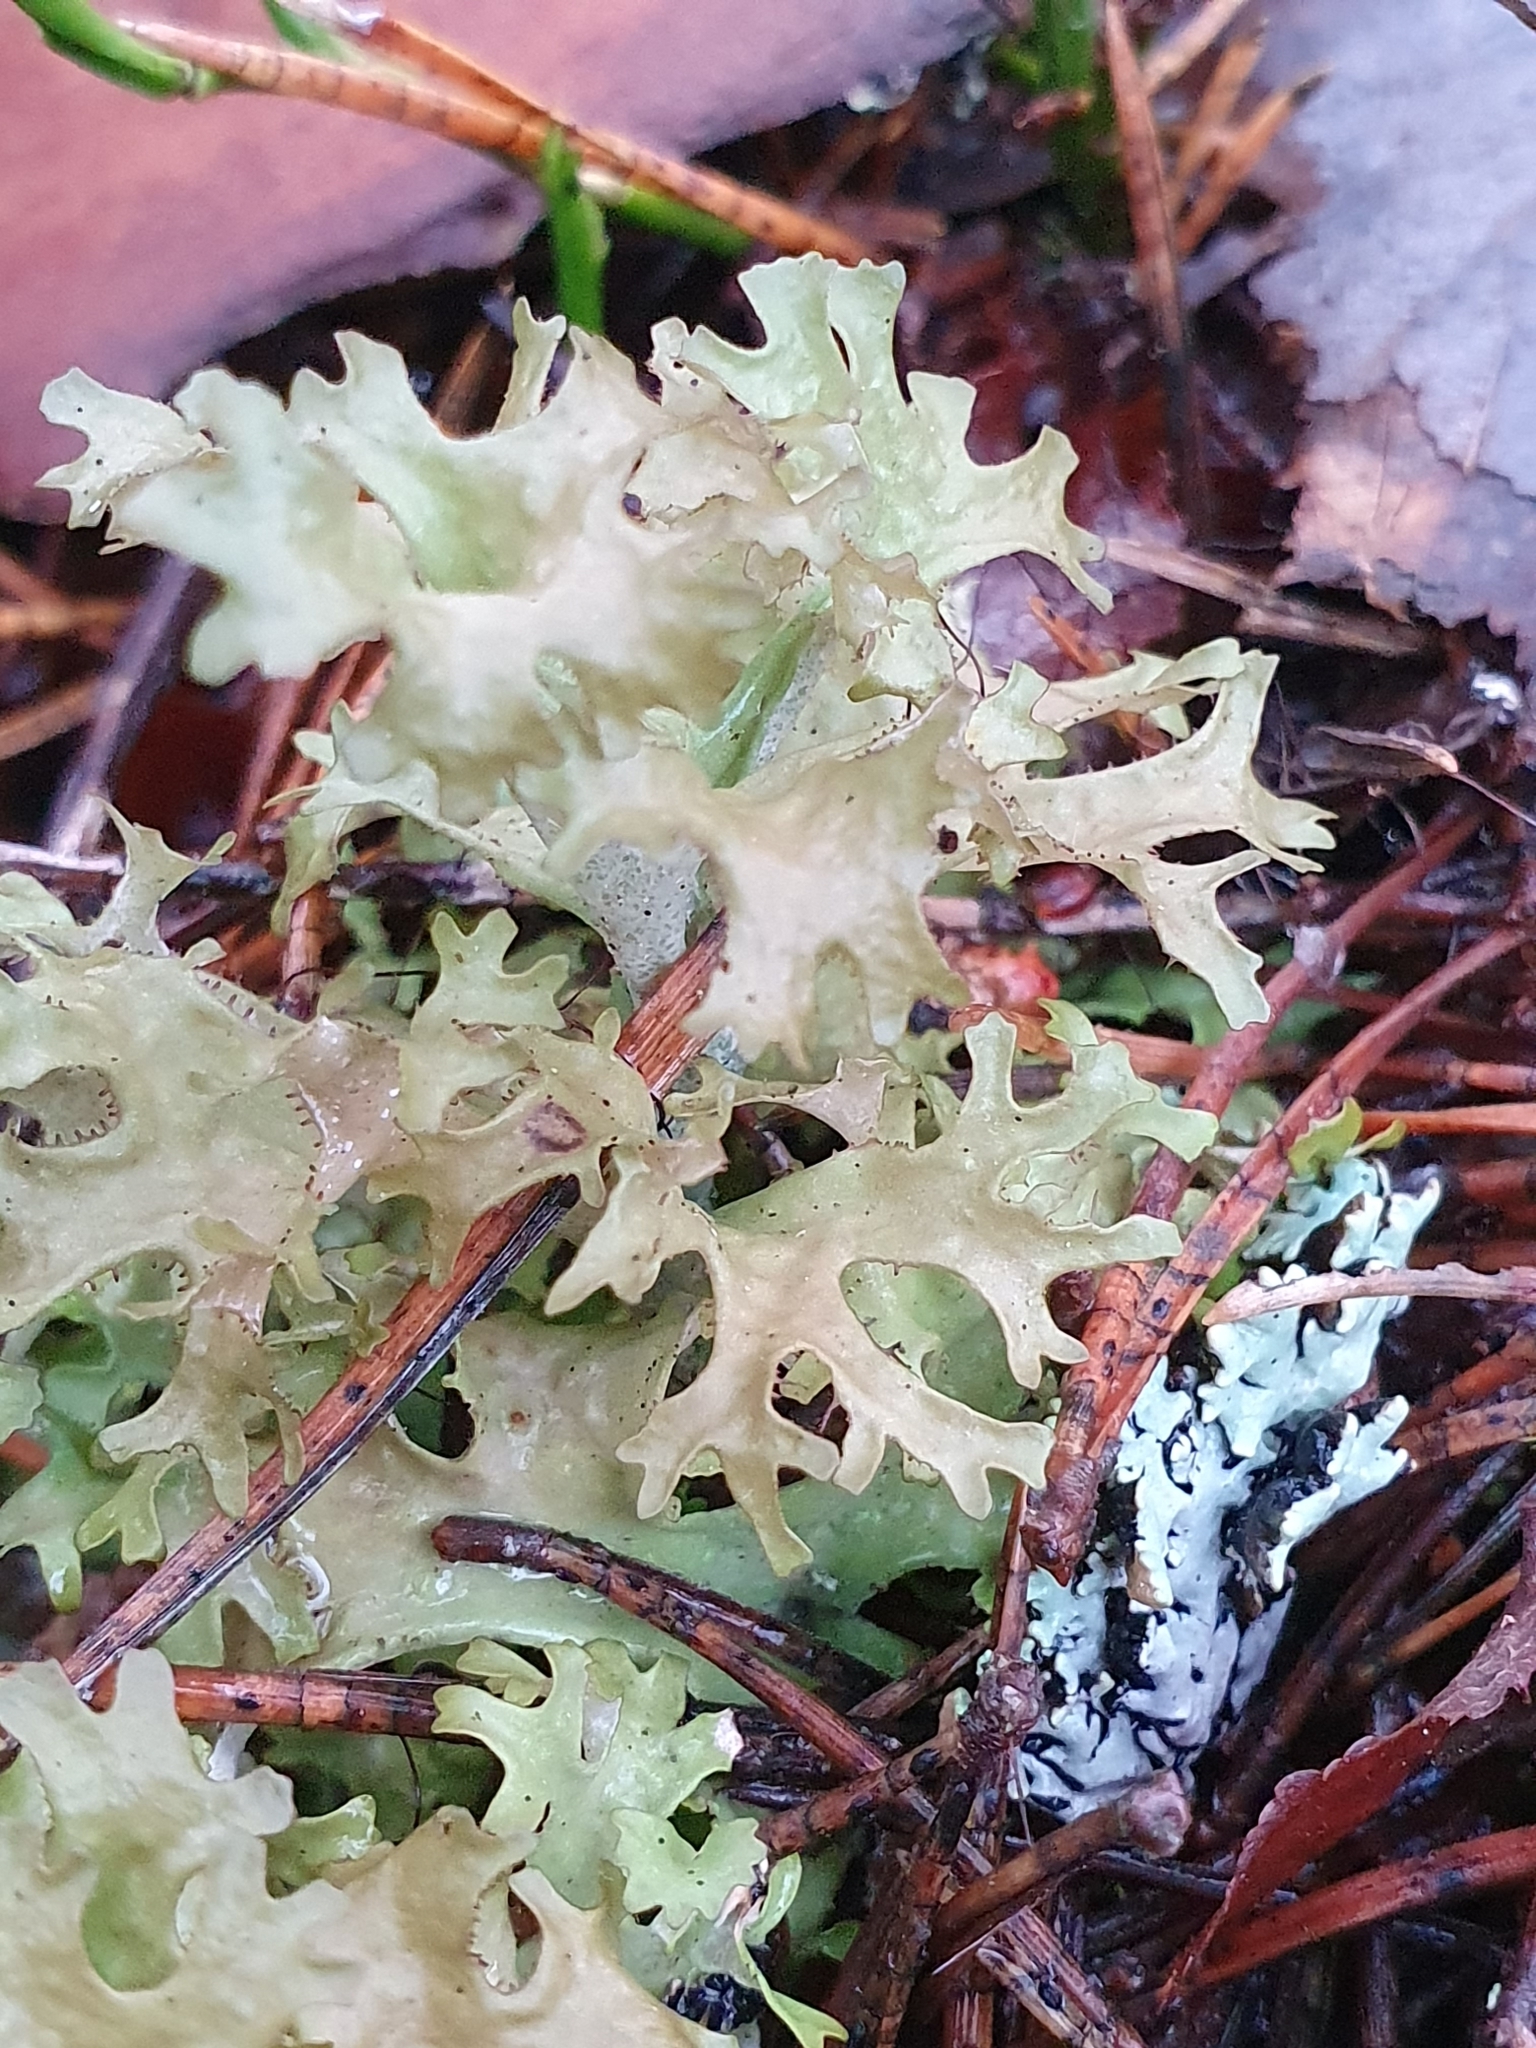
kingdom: Fungi
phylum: Ascomycota
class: Lecanoromycetes
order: Lecanorales
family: Parmeliaceae
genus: Cetraria
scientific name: Cetraria islandica
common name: Iceland lichen
